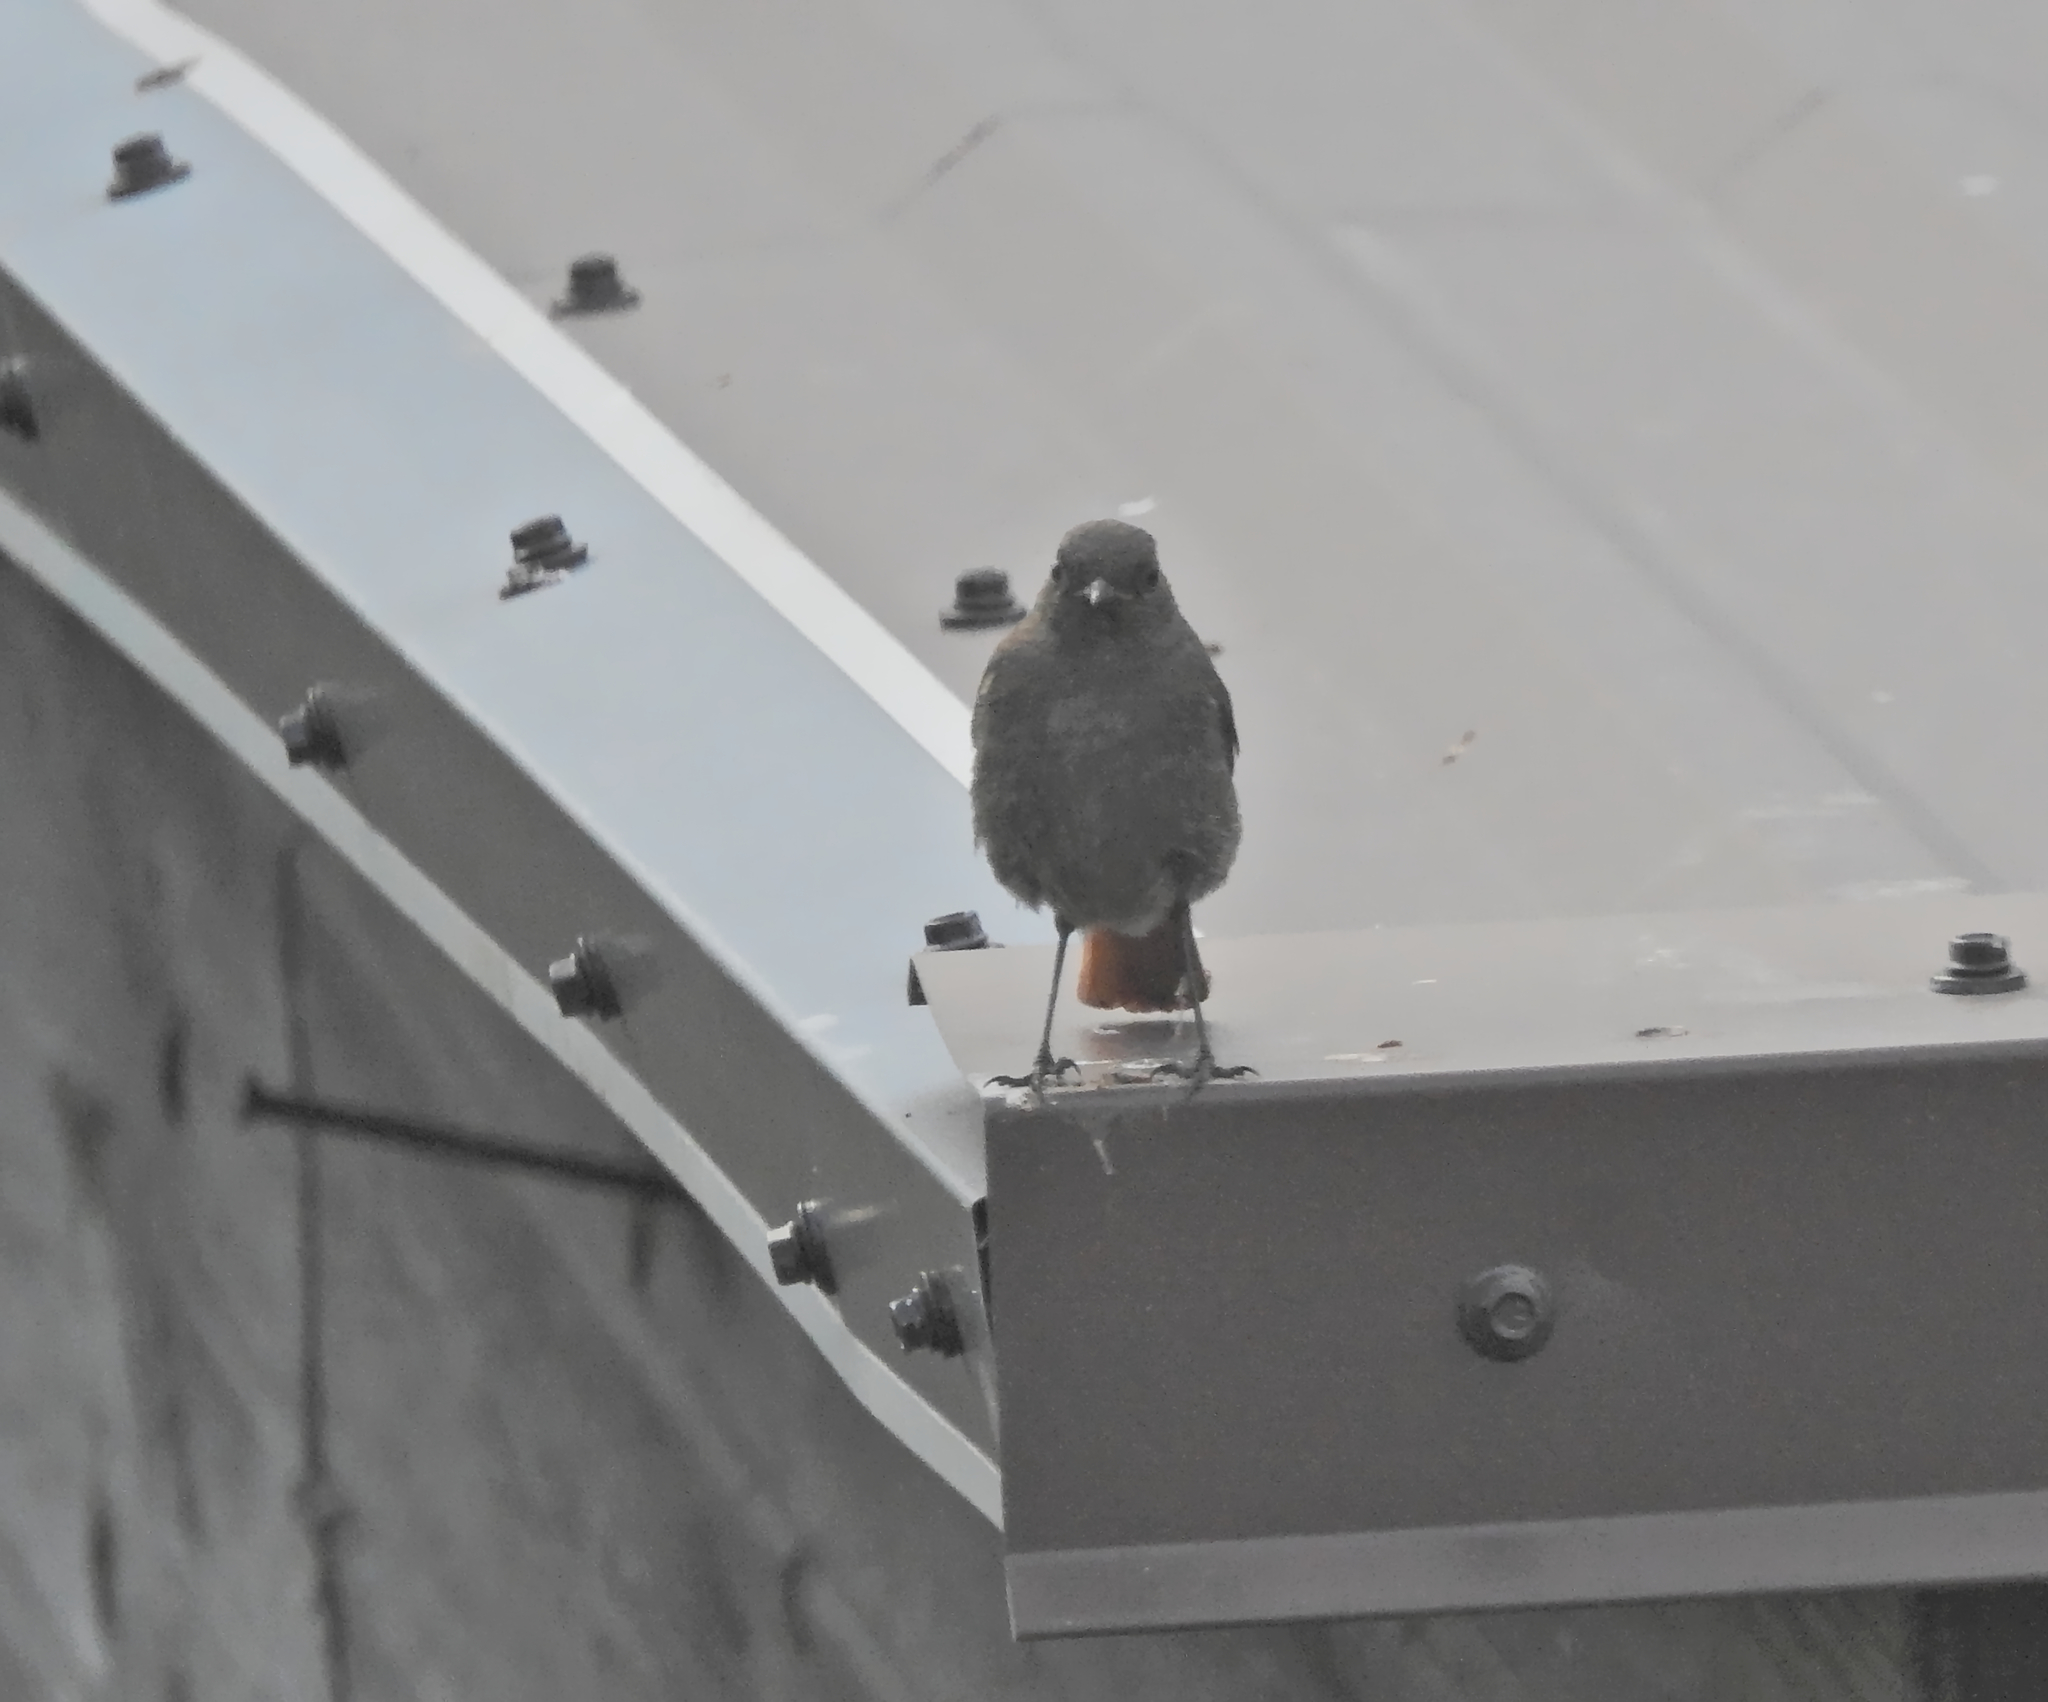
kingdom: Animalia
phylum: Chordata
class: Aves
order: Passeriformes
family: Muscicapidae
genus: Phoenicurus
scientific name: Phoenicurus ochruros
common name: Black redstart
